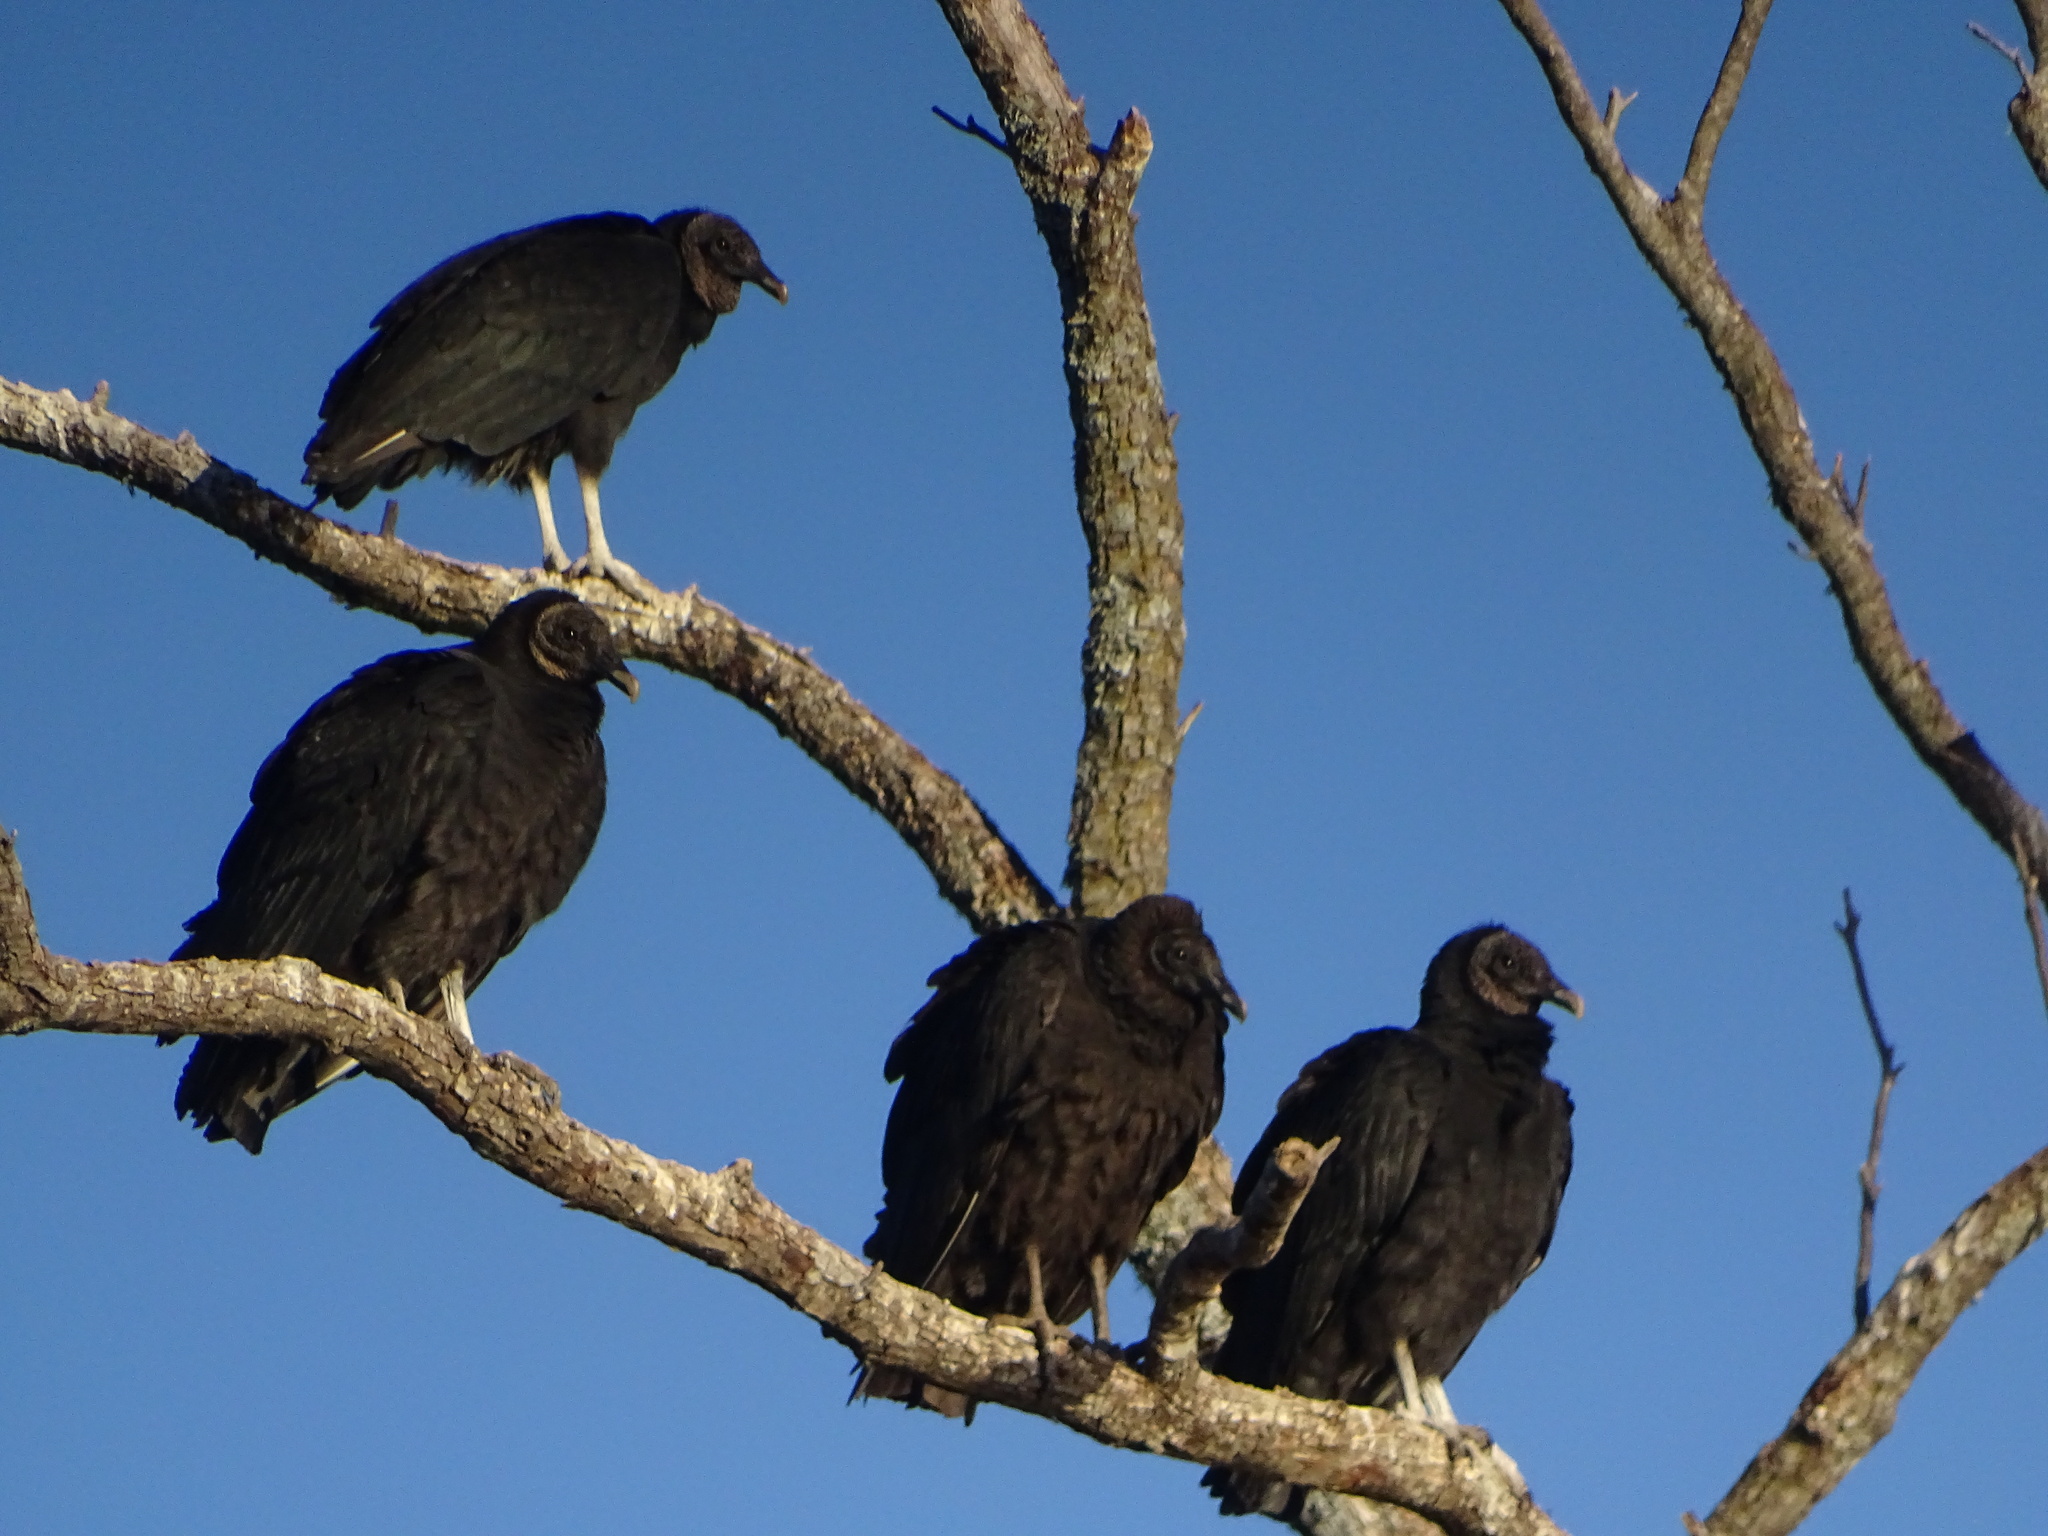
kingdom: Animalia
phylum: Chordata
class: Aves
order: Accipitriformes
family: Cathartidae
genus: Coragyps
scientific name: Coragyps atratus
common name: Black vulture
